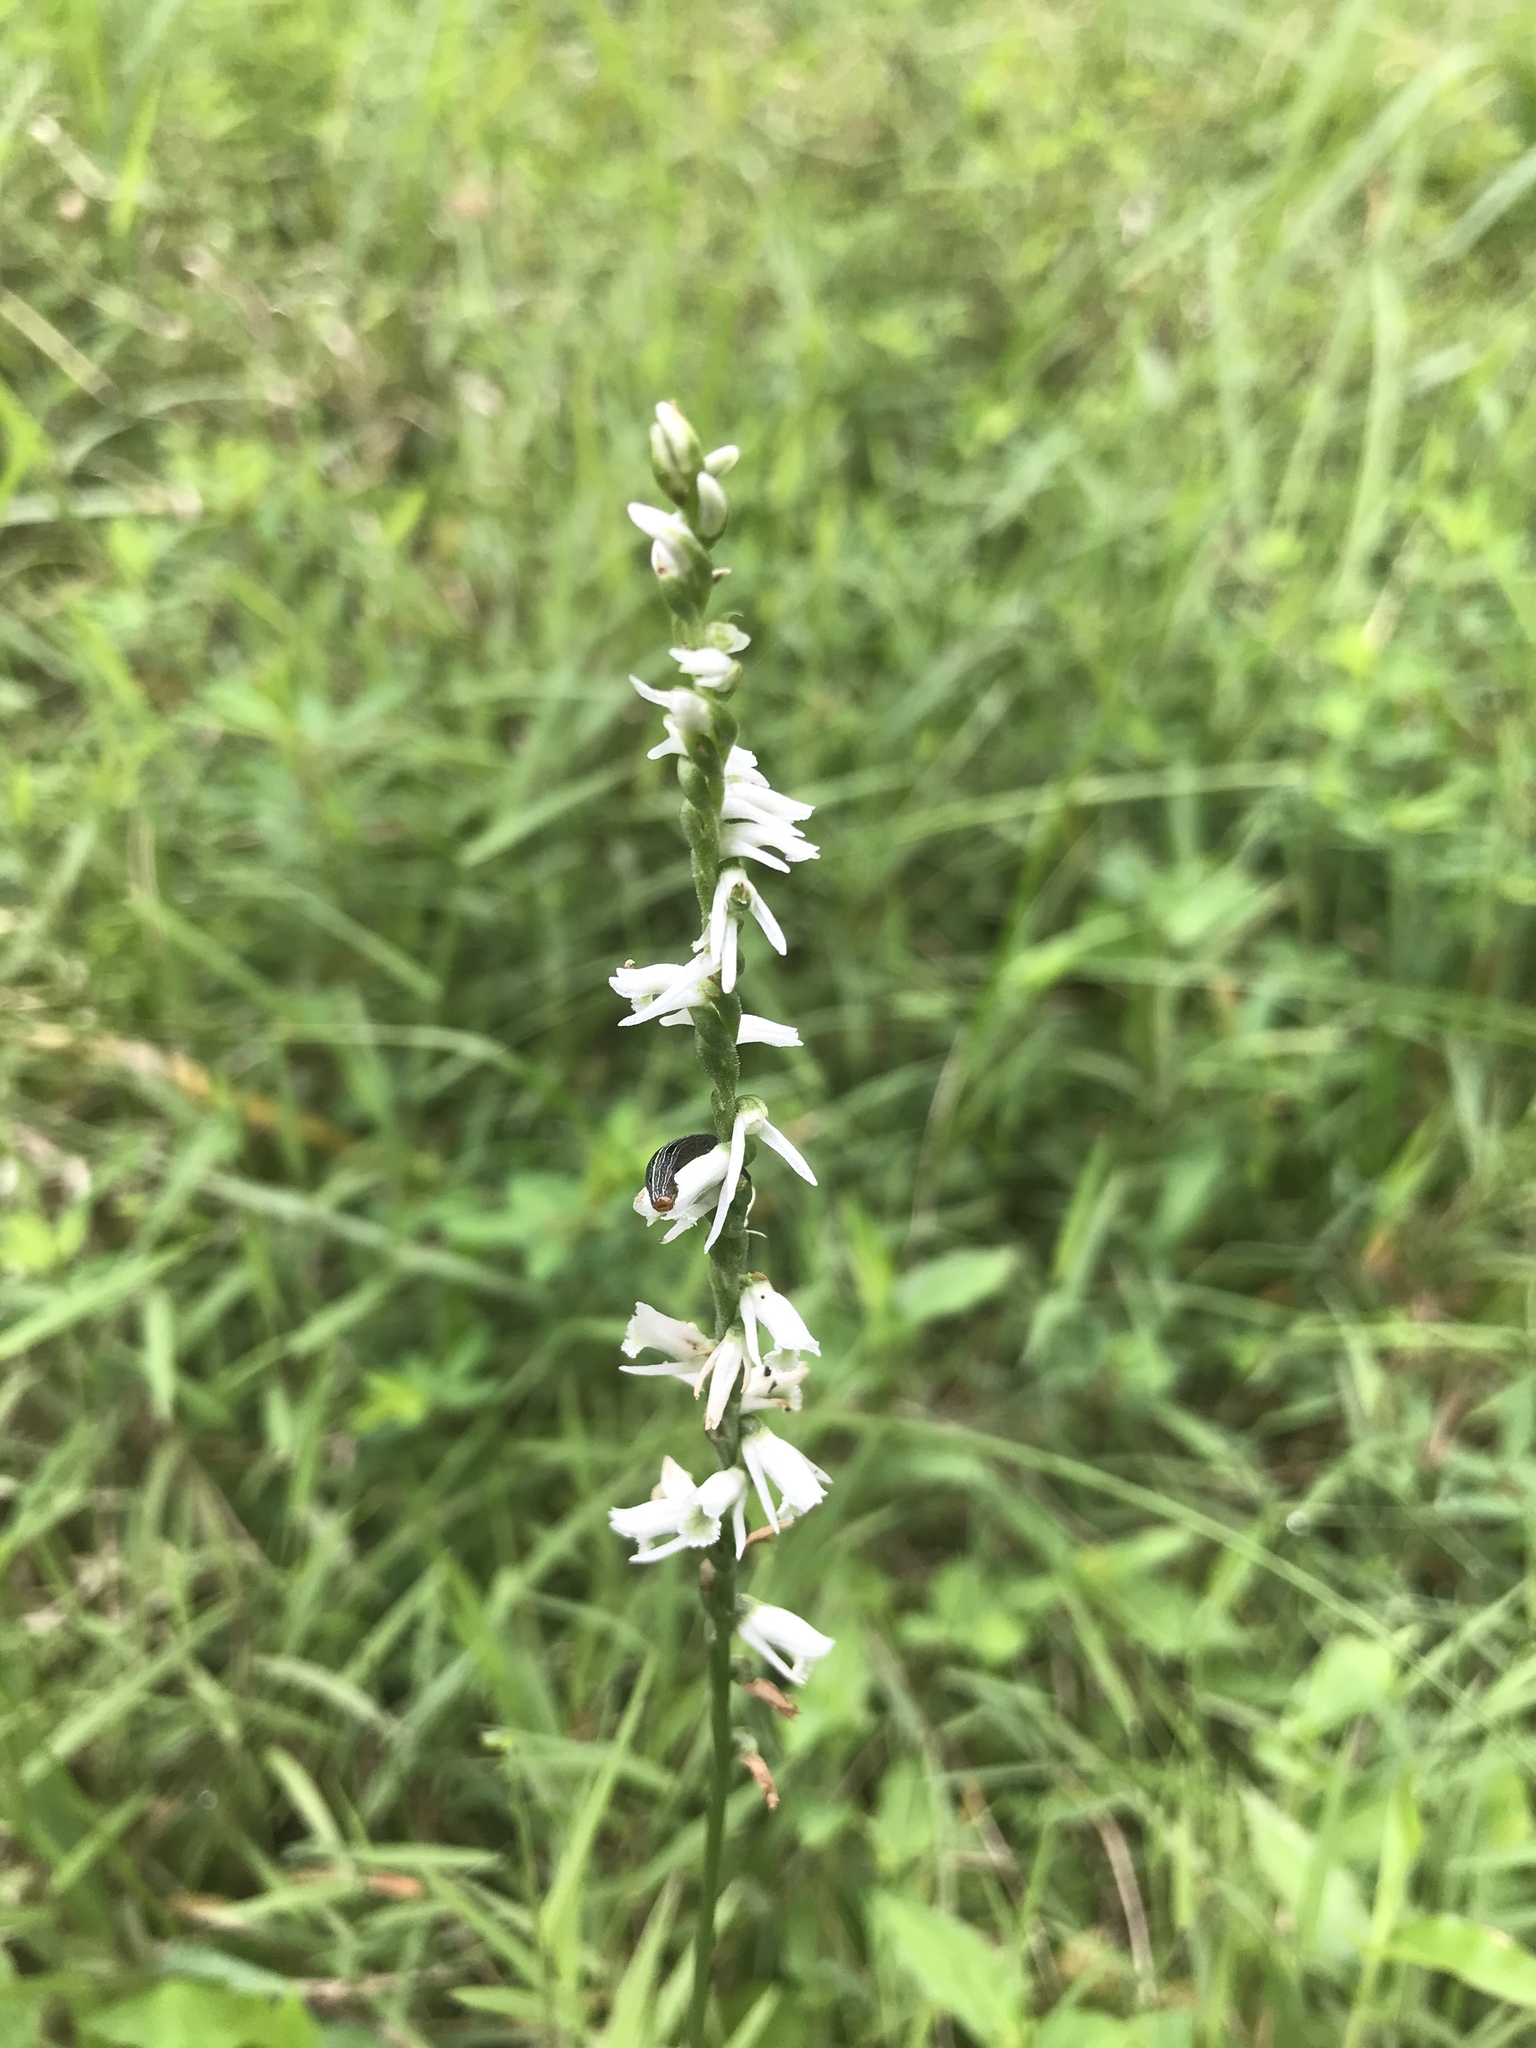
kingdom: Plantae
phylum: Tracheophyta
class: Liliopsida
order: Asparagales
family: Orchidaceae
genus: Spiranthes
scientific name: Spiranthes lacera
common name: Northern slender ladies'-tresses
